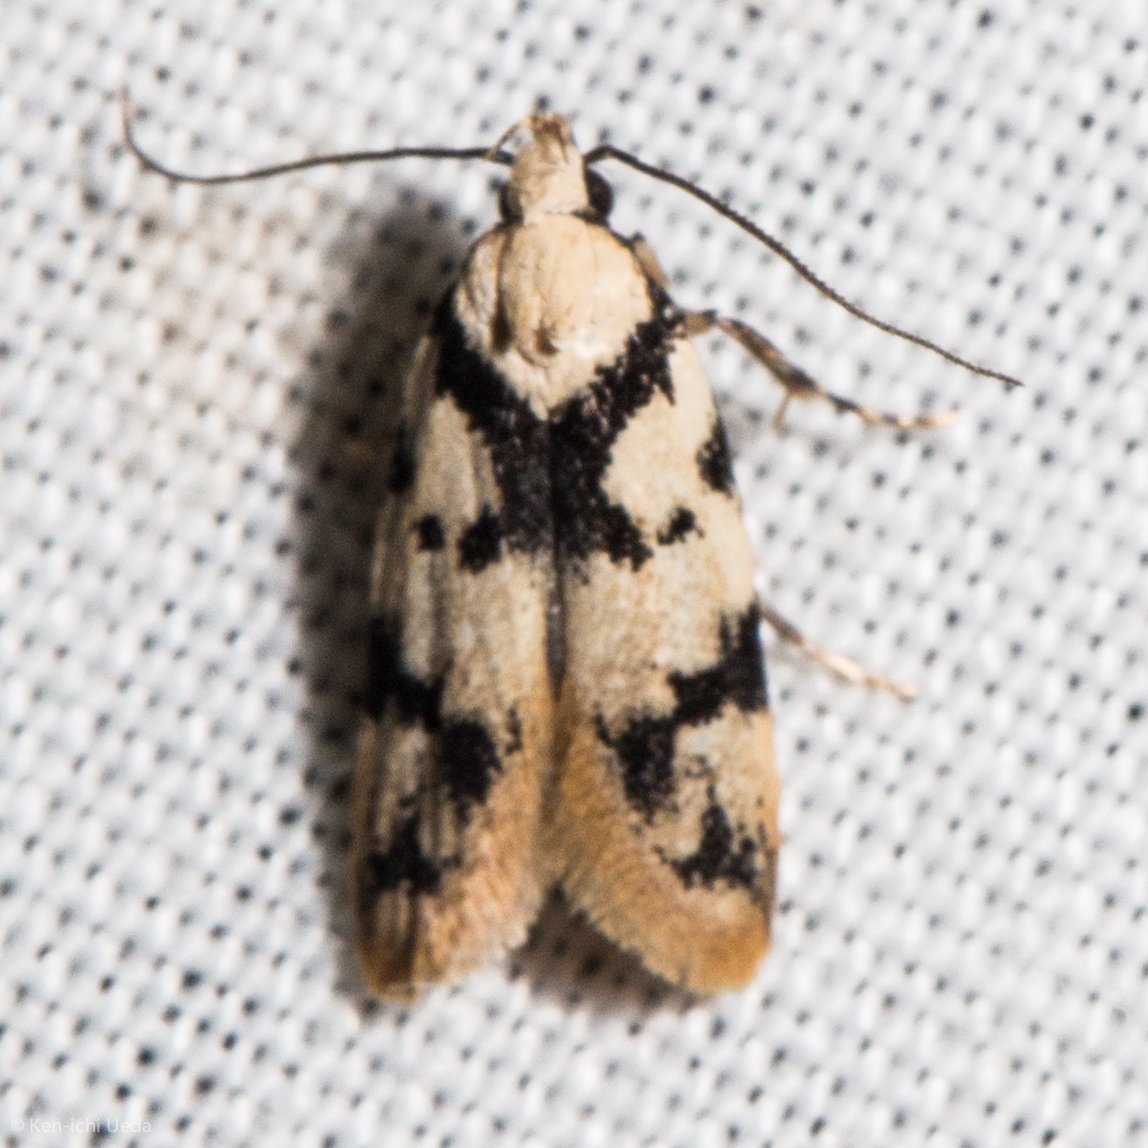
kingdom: Animalia
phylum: Arthropoda
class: Insecta
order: Lepidoptera
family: Oecophoridae
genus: Barea
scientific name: Barea discincta
